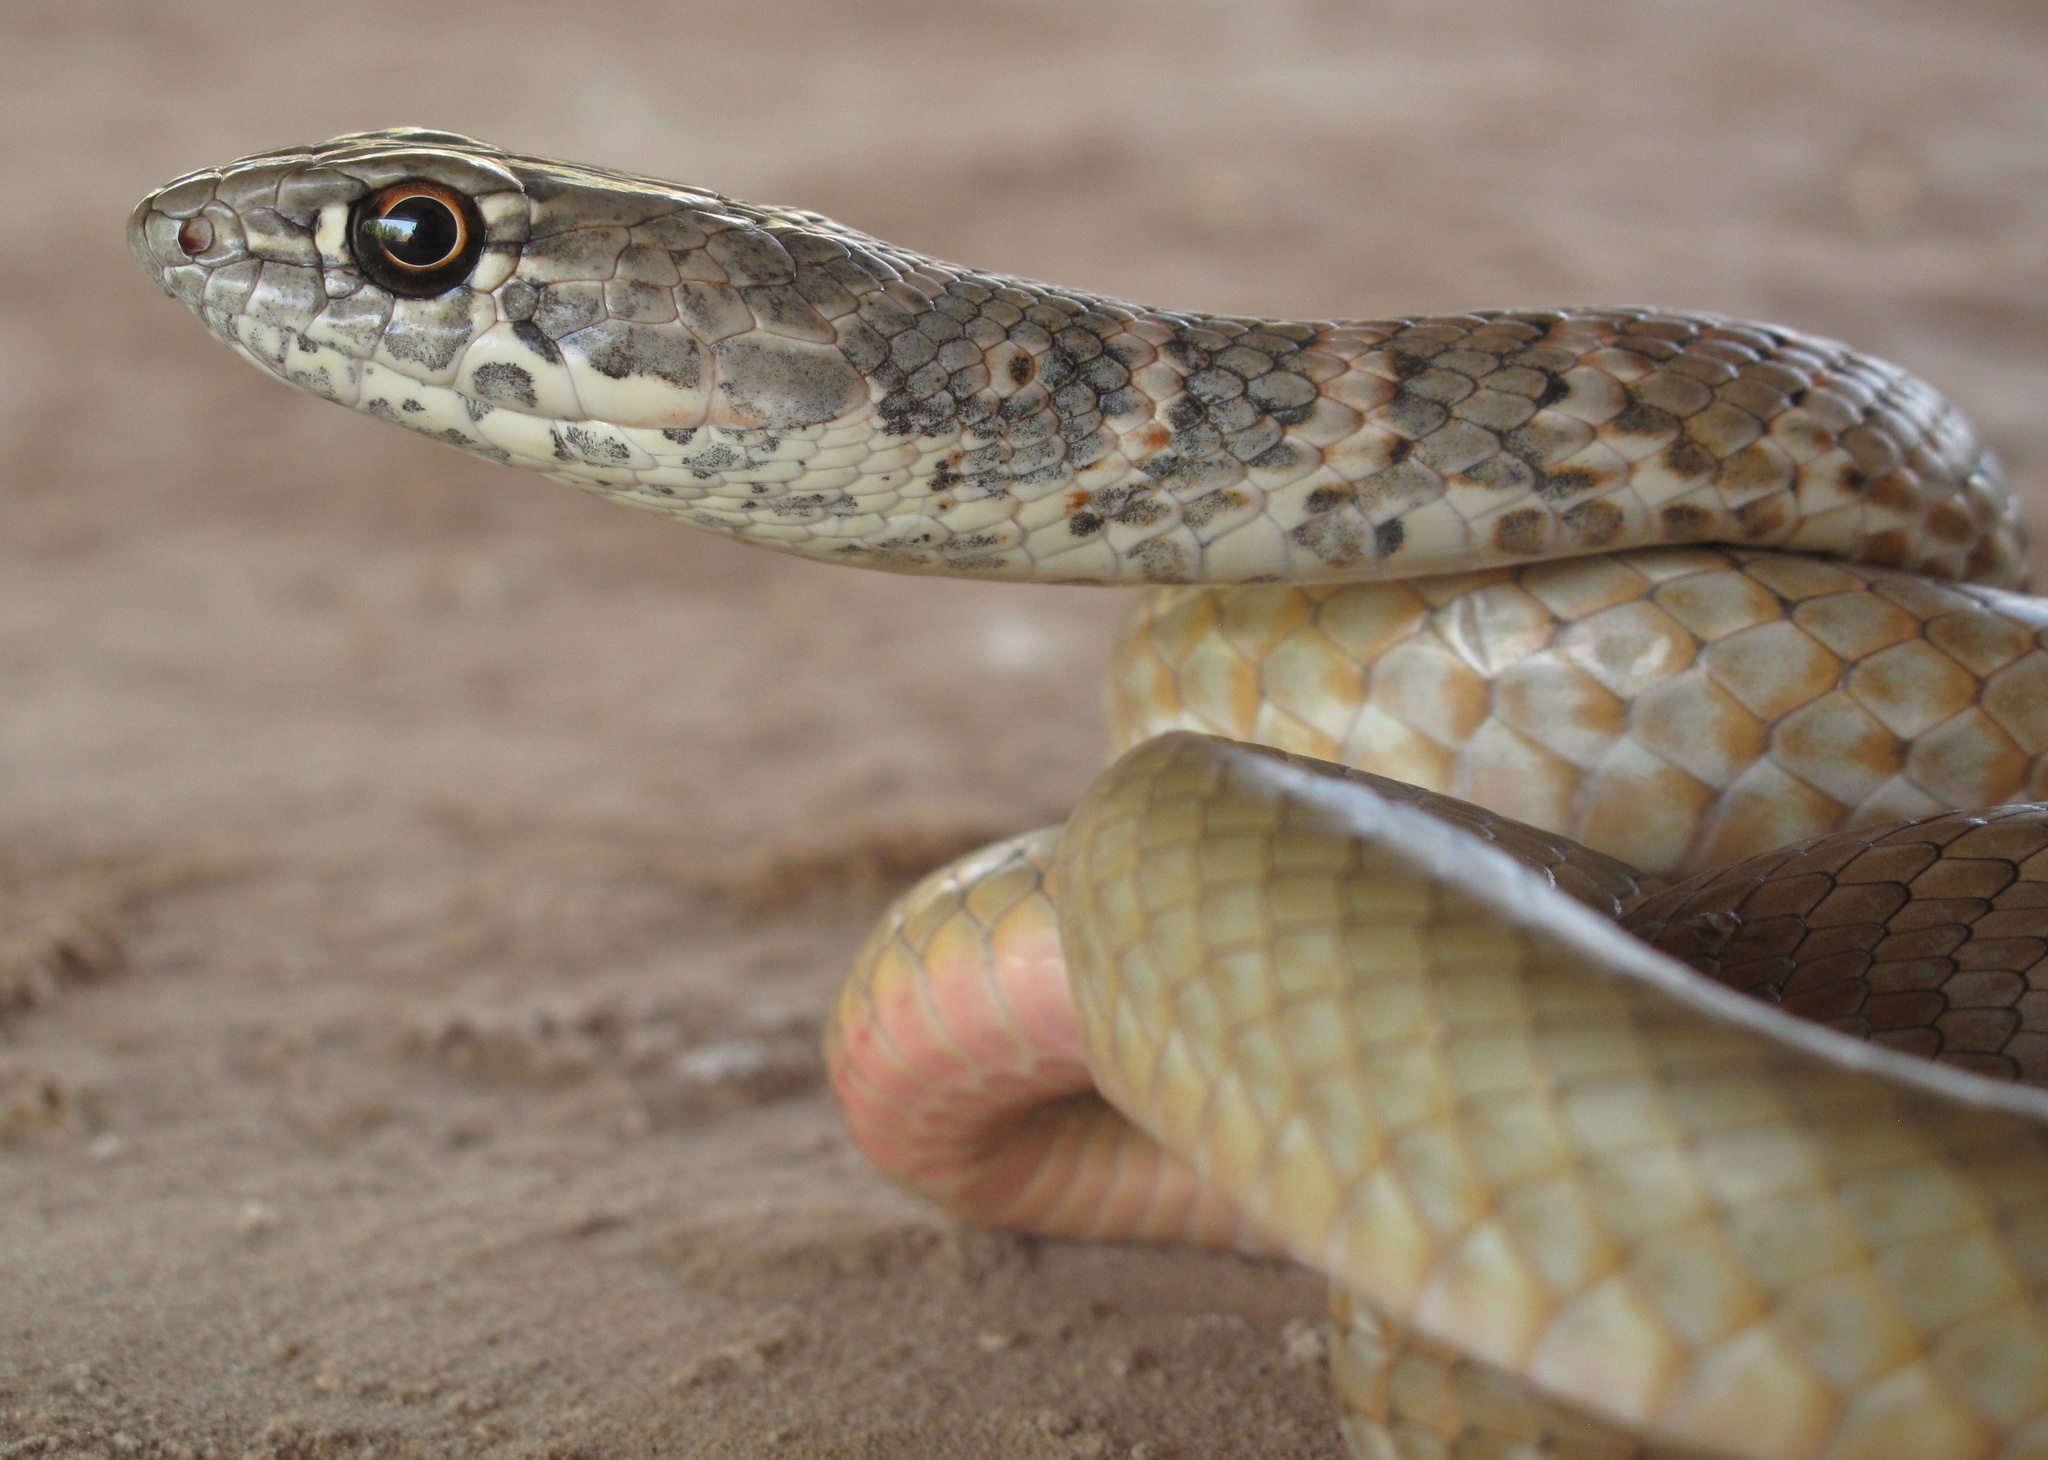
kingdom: Animalia
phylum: Chordata
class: Squamata
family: Colubridae
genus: Masticophis
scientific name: Masticophis flagellum
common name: Coachwhip
